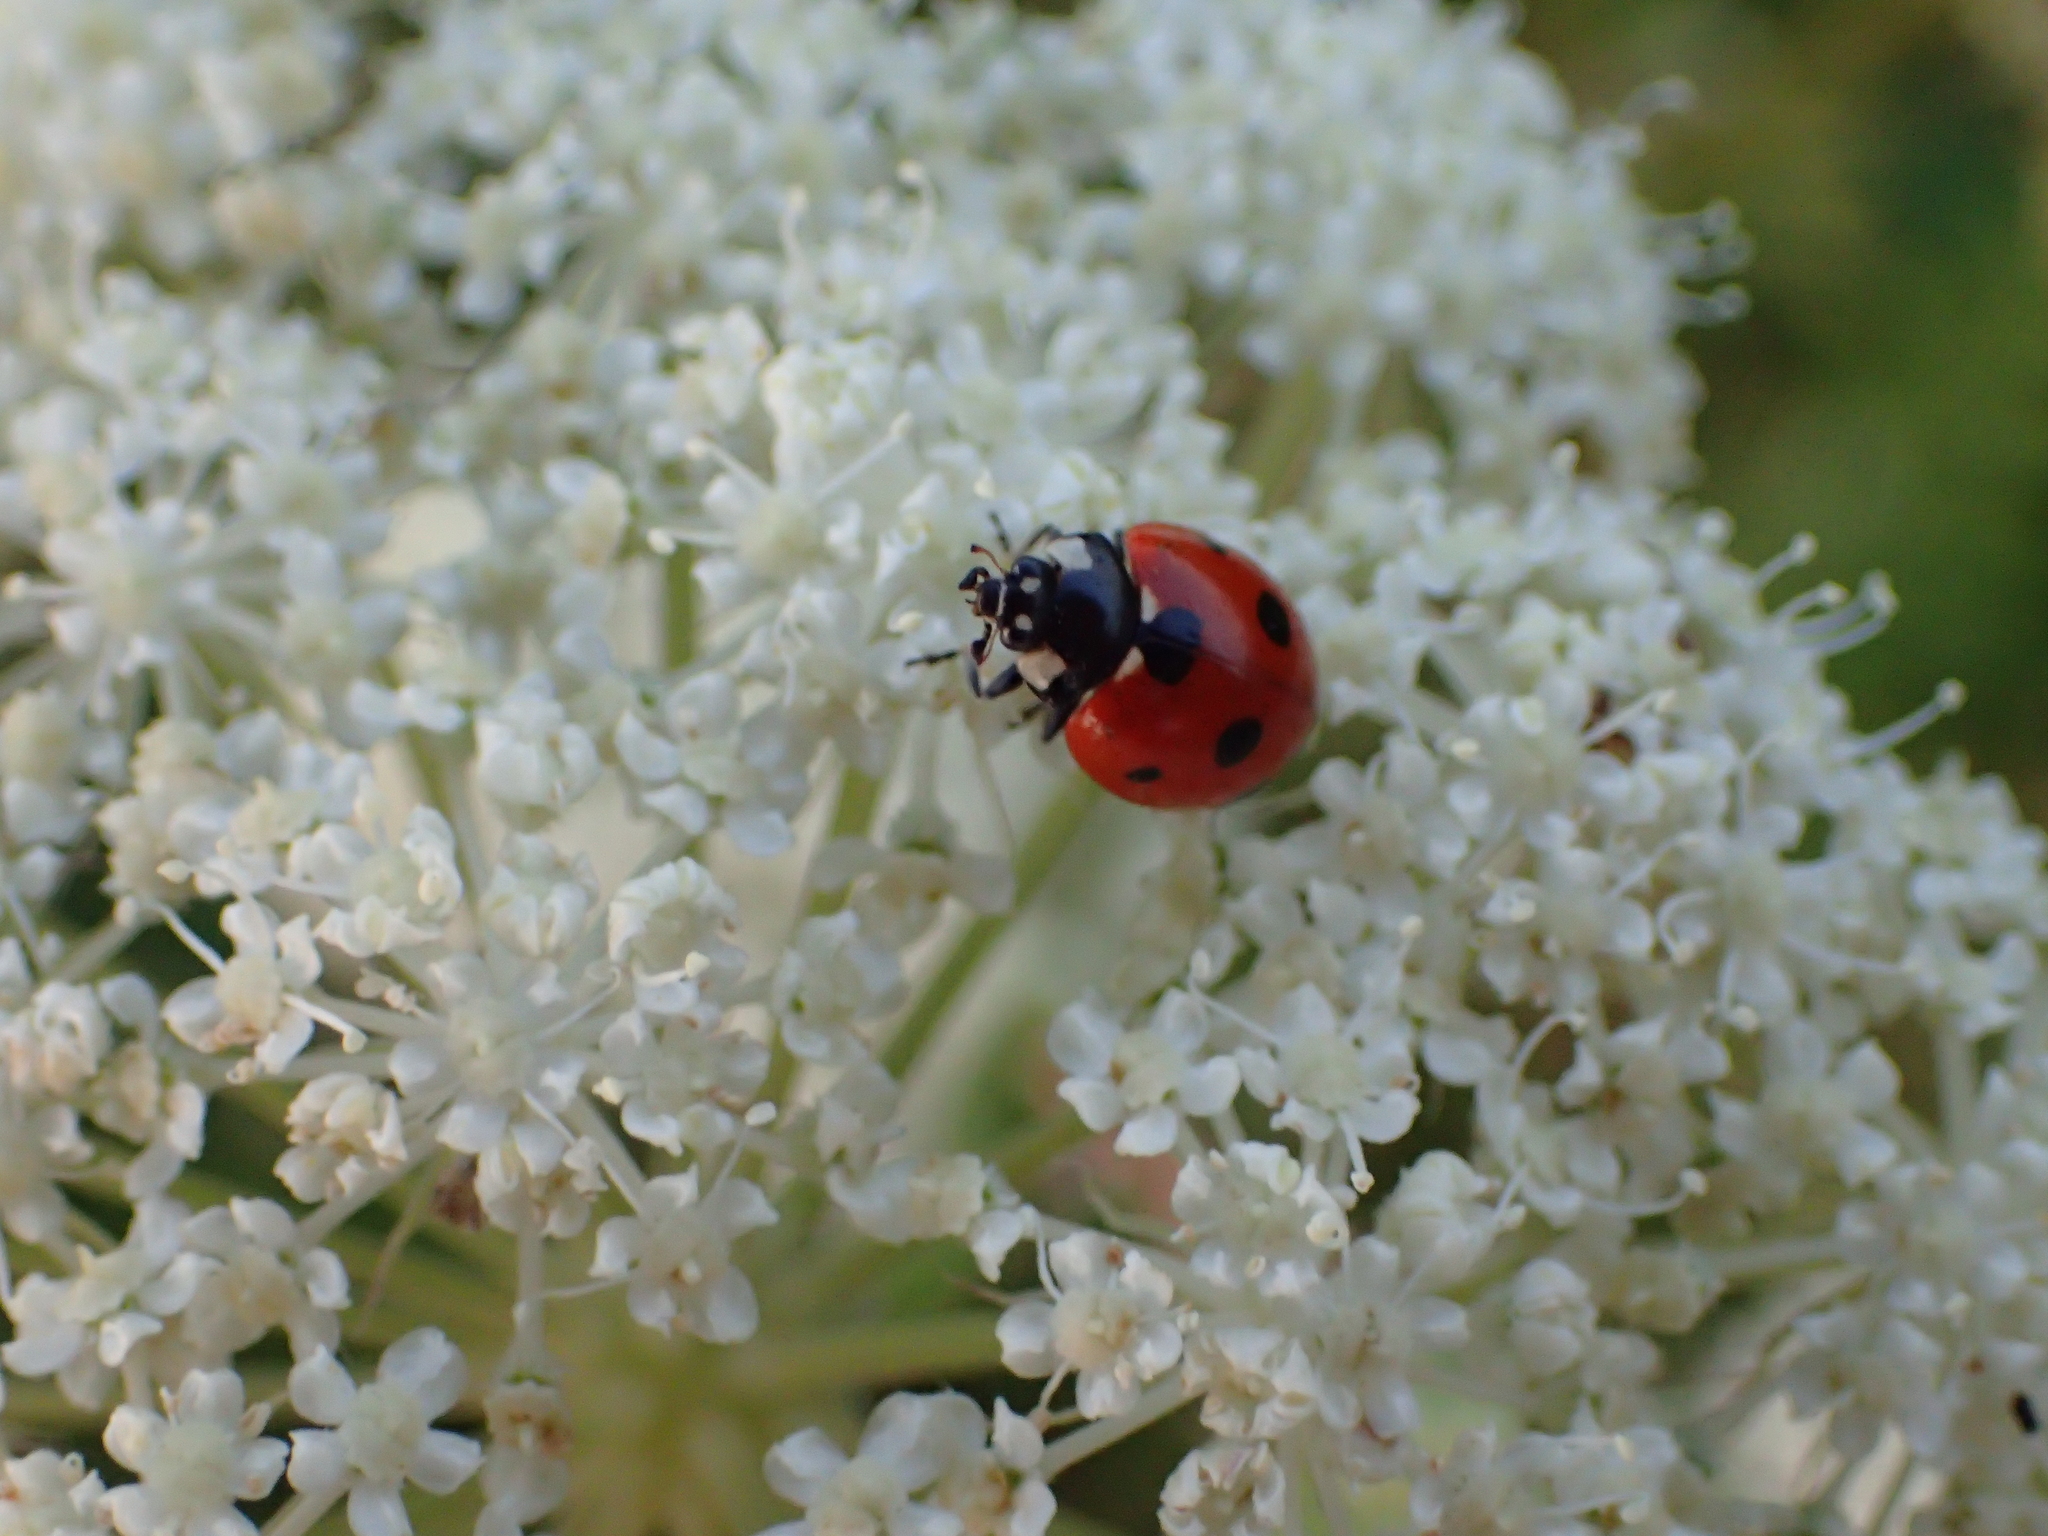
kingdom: Animalia
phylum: Arthropoda
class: Insecta
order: Coleoptera
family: Coccinellidae
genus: Coccinella
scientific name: Coccinella septempunctata
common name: Sevenspotted lady beetle
